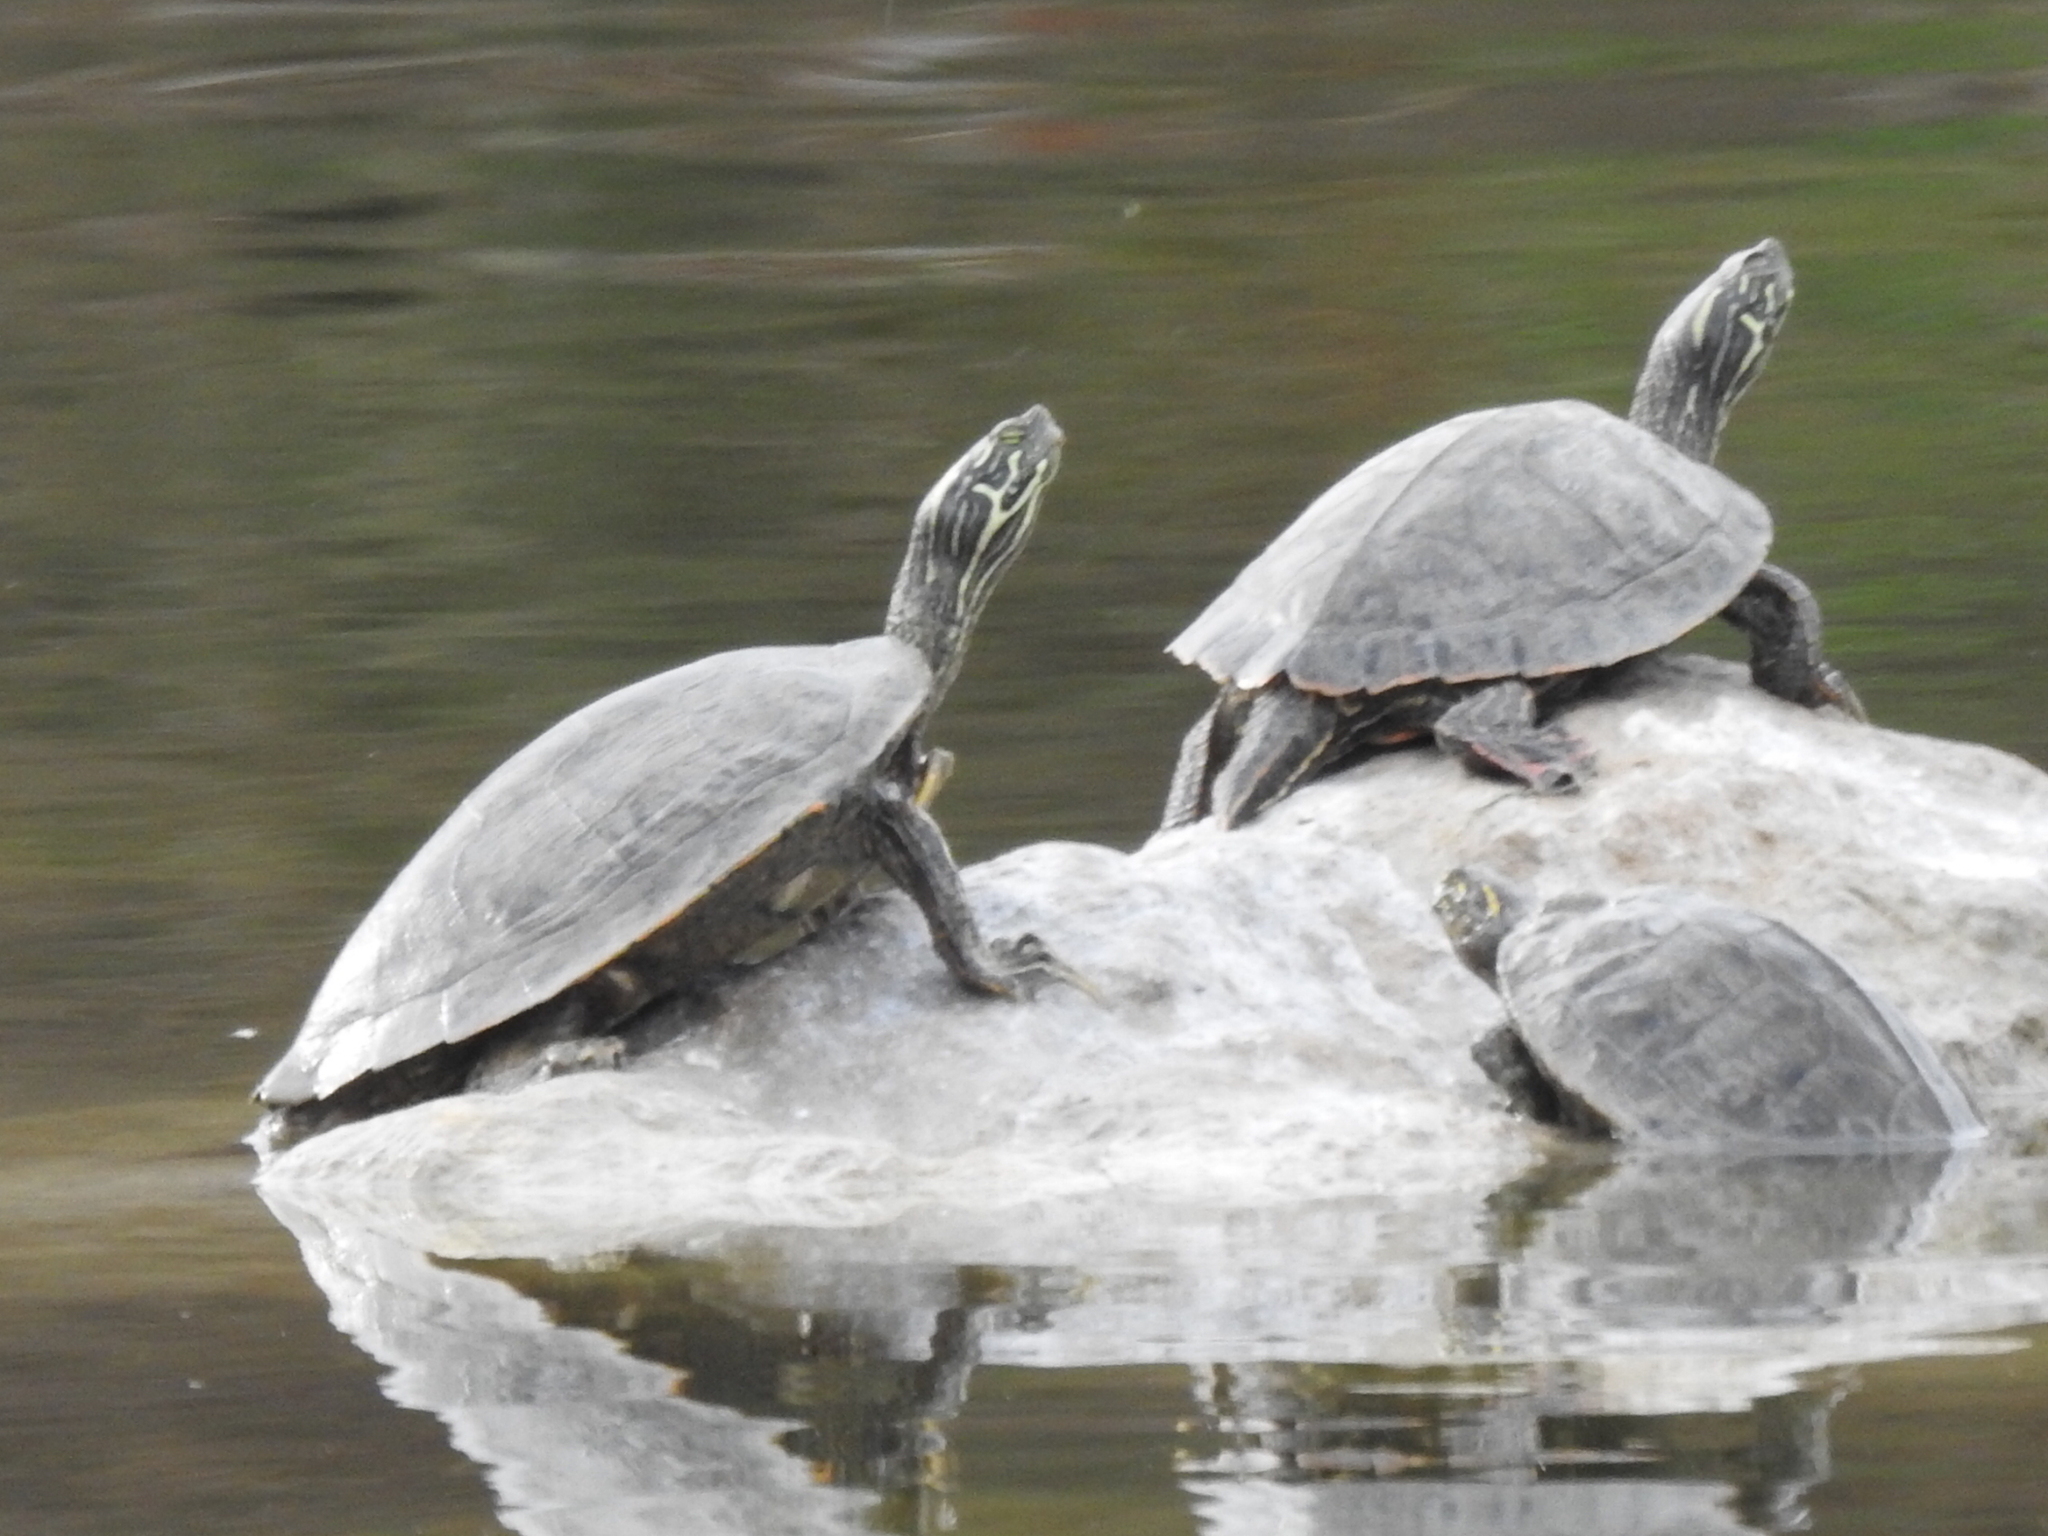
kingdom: Animalia
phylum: Chordata
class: Testudines
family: Emydidae
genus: Pseudemys
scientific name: Pseudemys texana
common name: Texas river cooter
